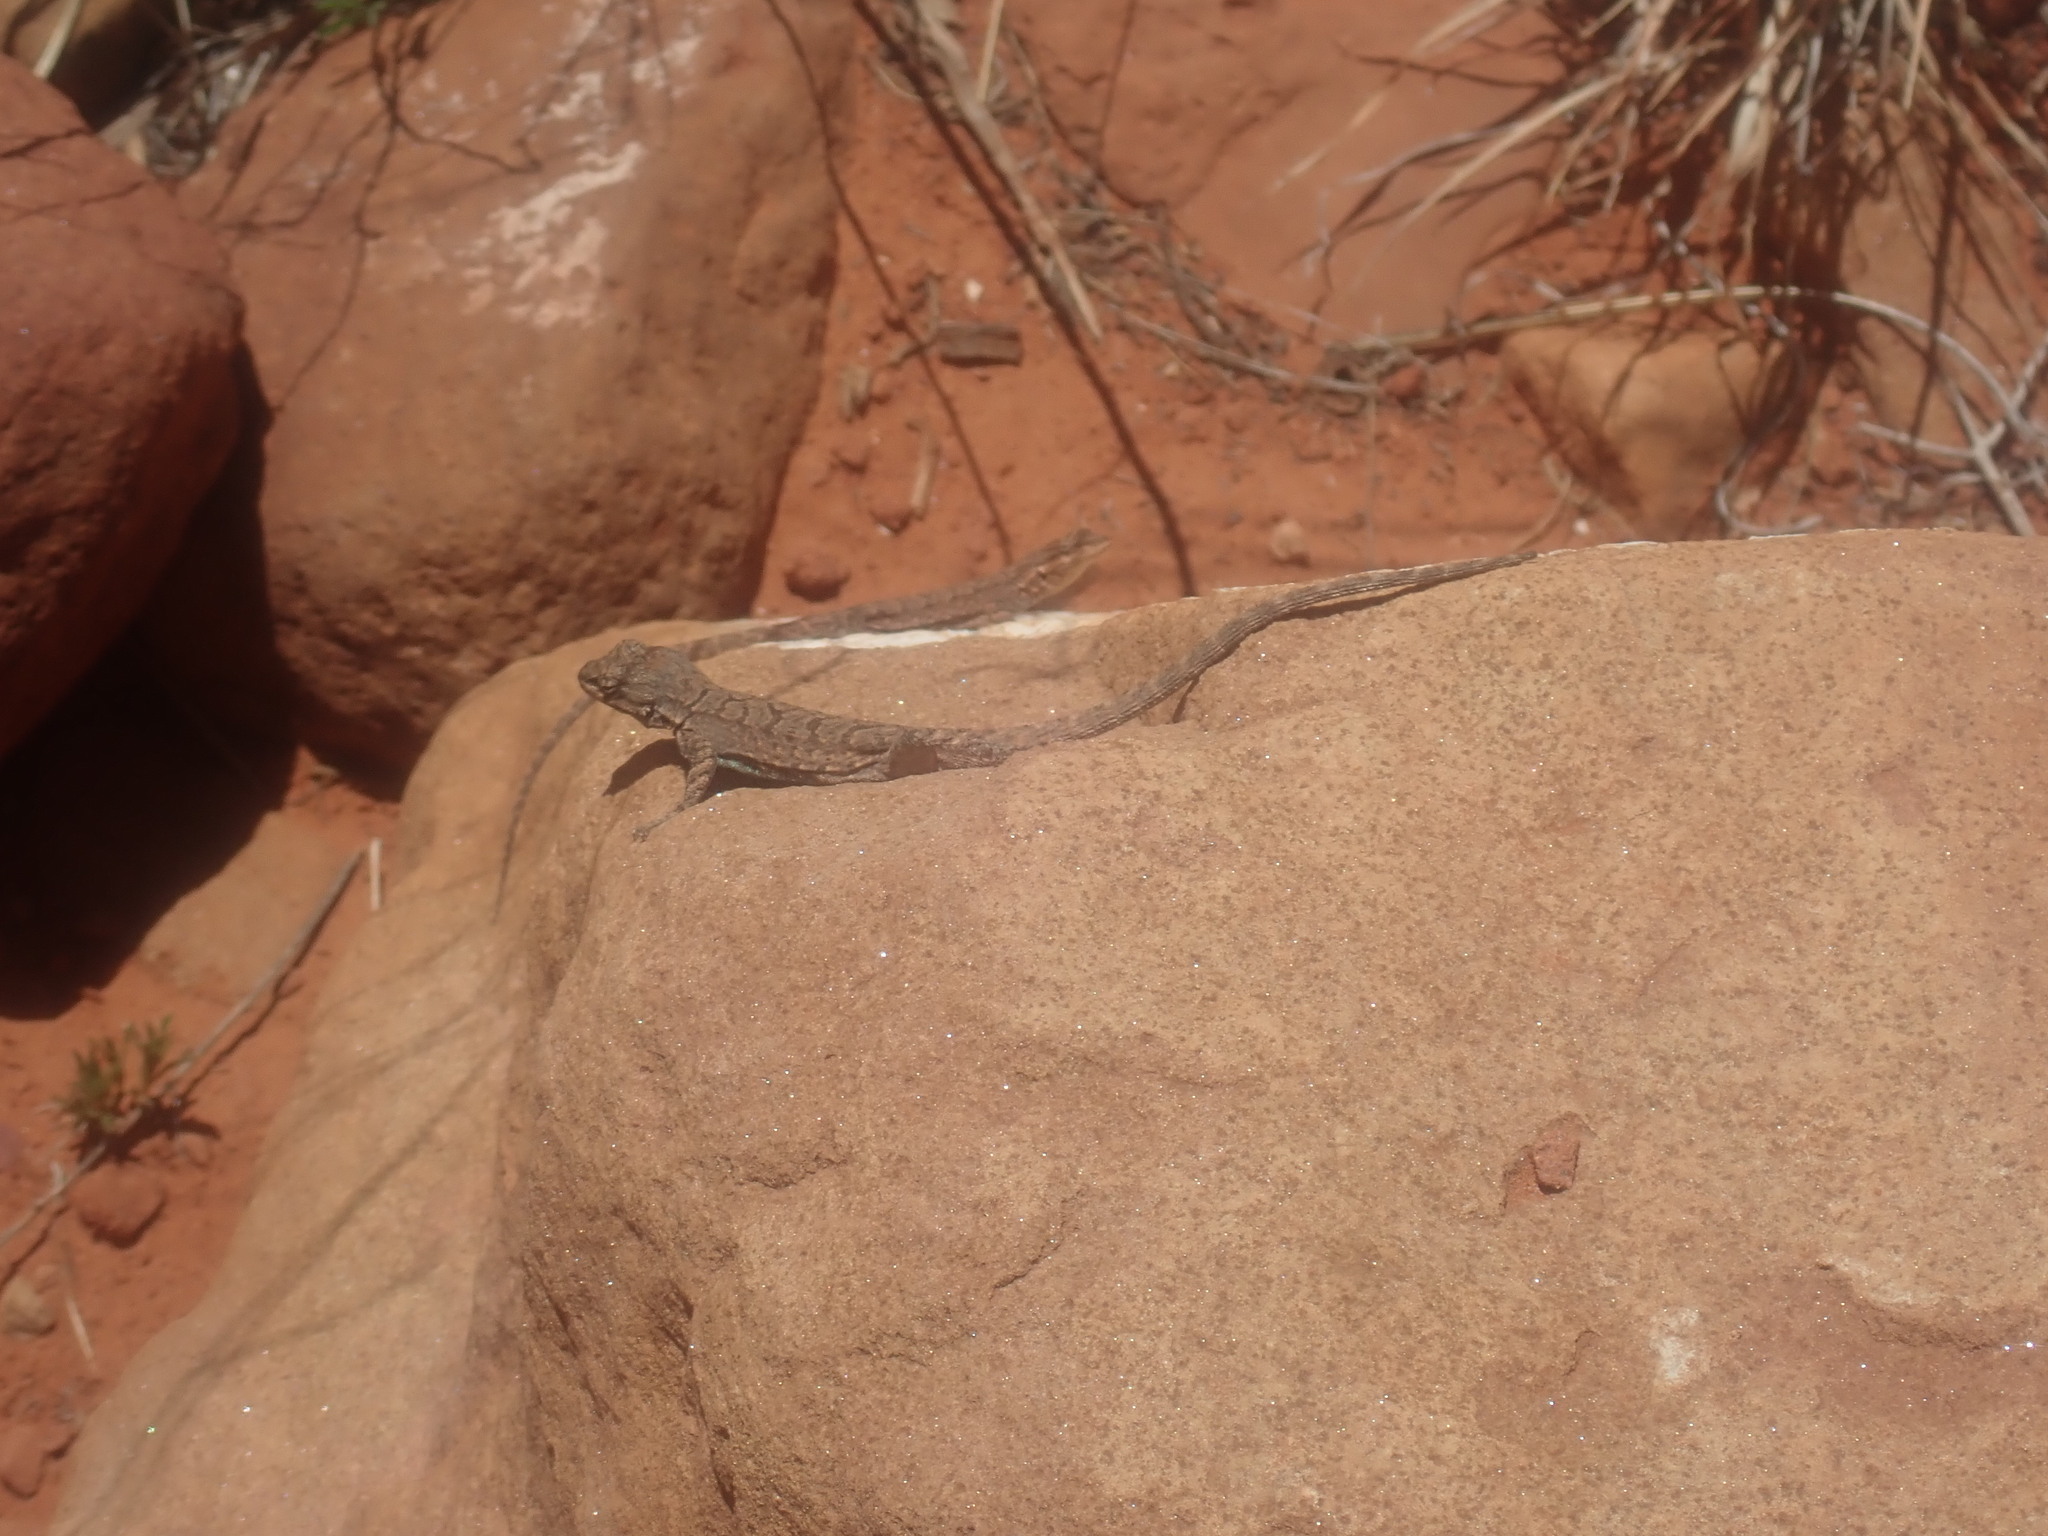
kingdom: Animalia
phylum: Chordata
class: Squamata
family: Phrynosomatidae
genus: Urosaurus
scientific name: Urosaurus ornatus
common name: Ornate tree lizard
